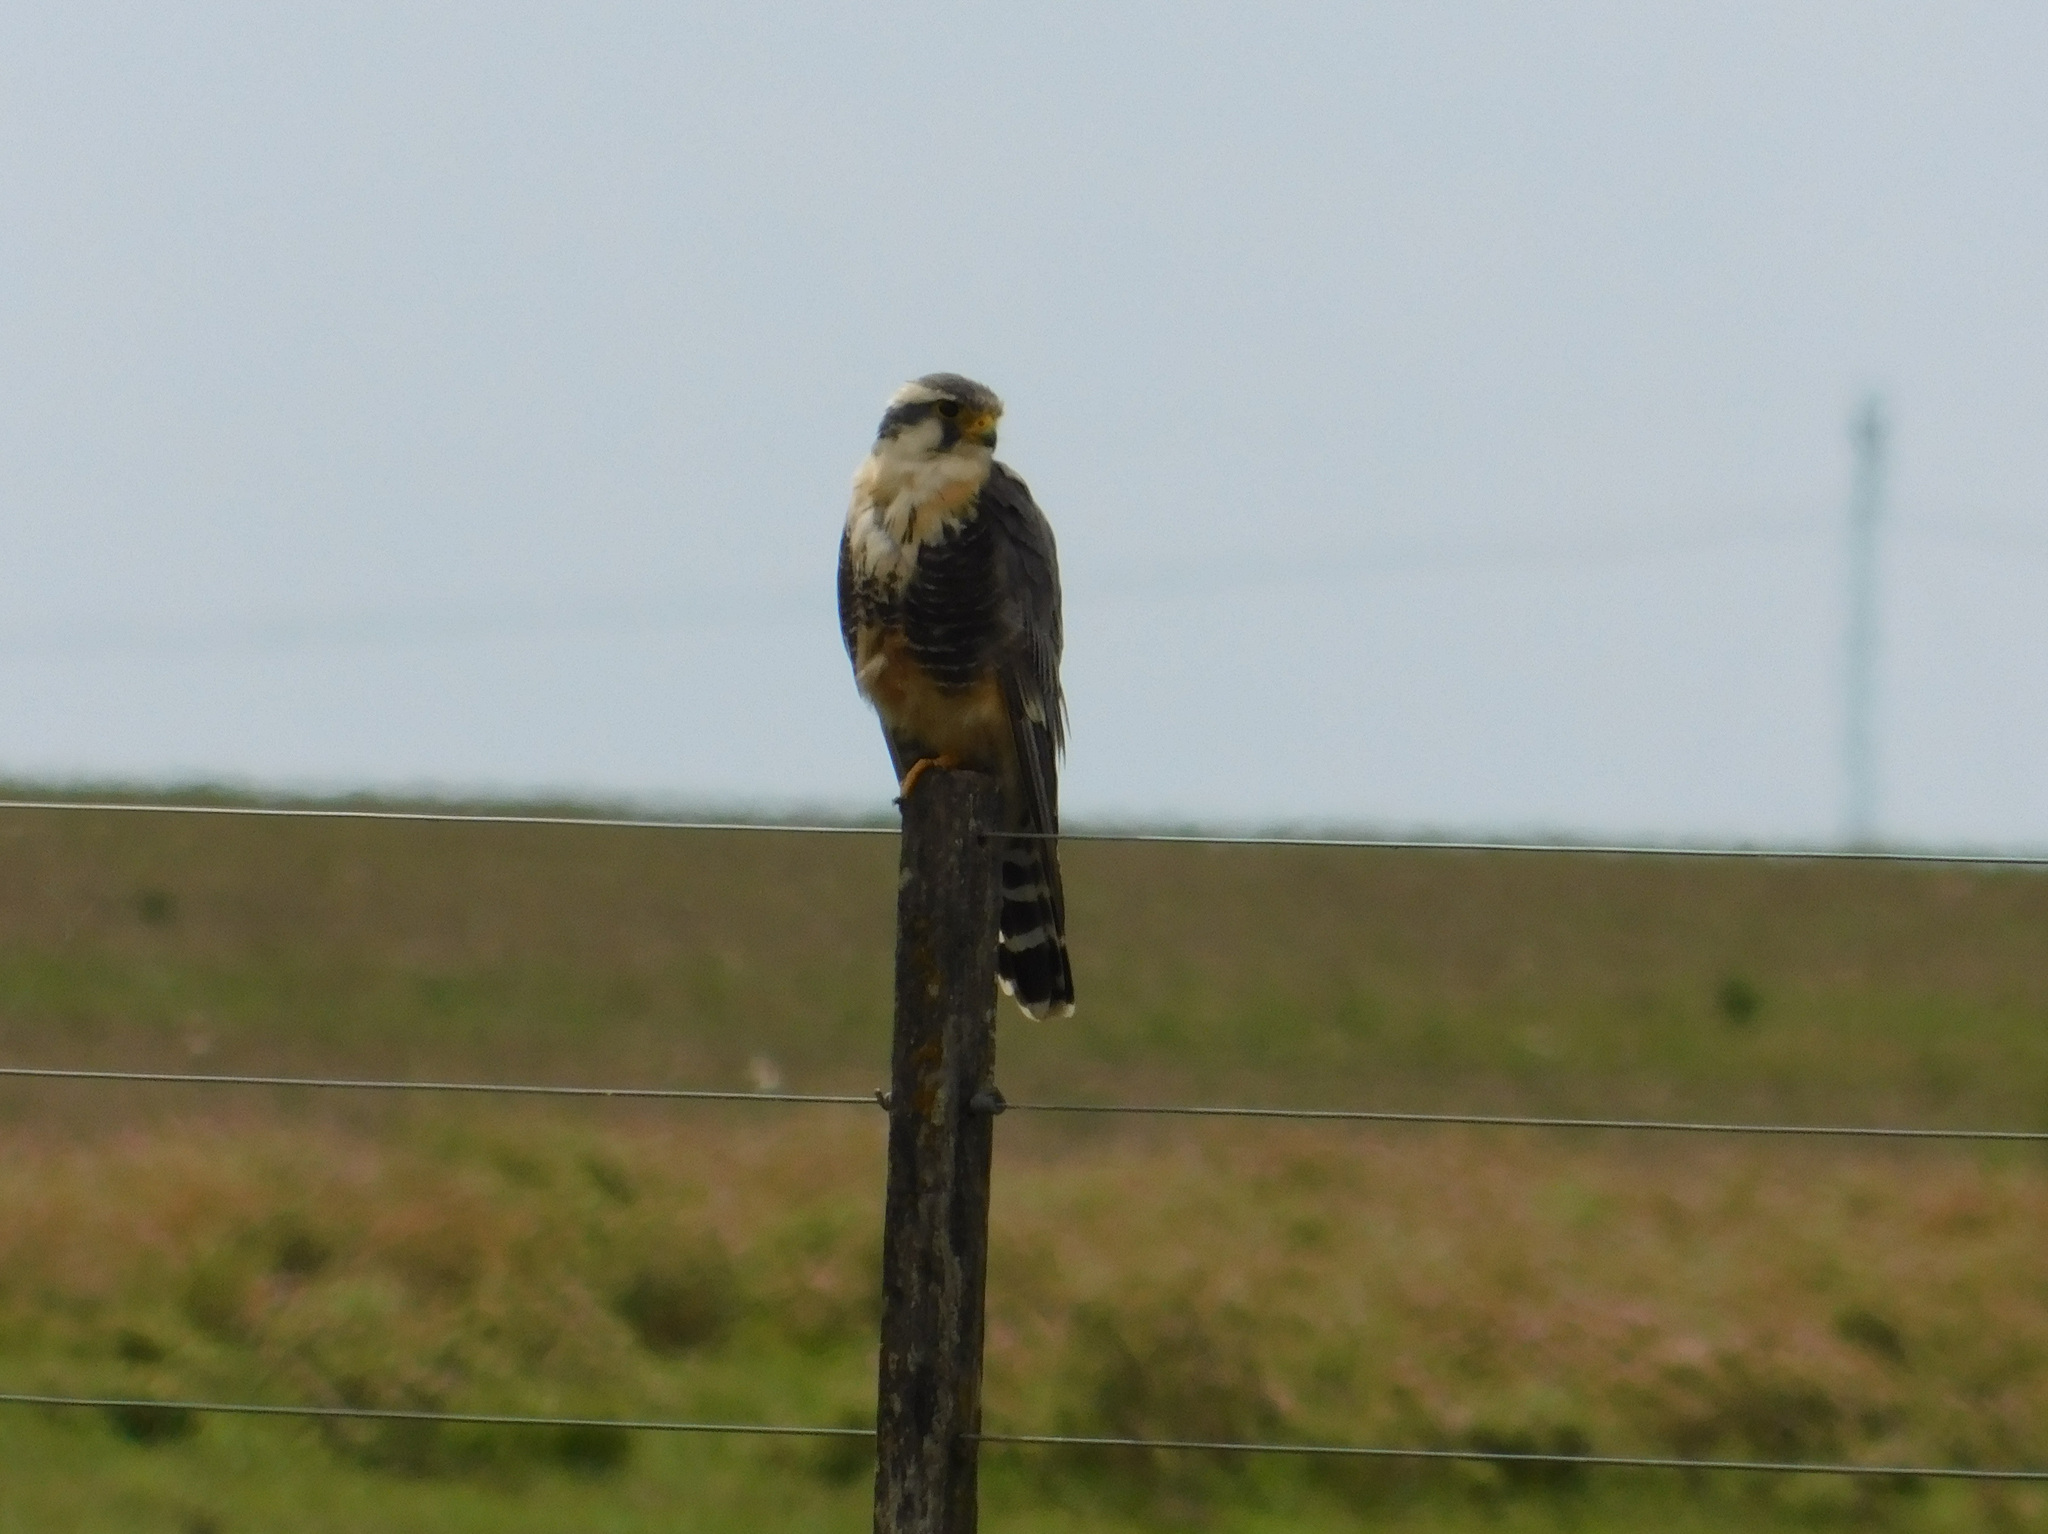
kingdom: Animalia
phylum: Chordata
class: Aves
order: Falconiformes
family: Falconidae
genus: Falco
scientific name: Falco femoralis
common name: Aplomado falcon
